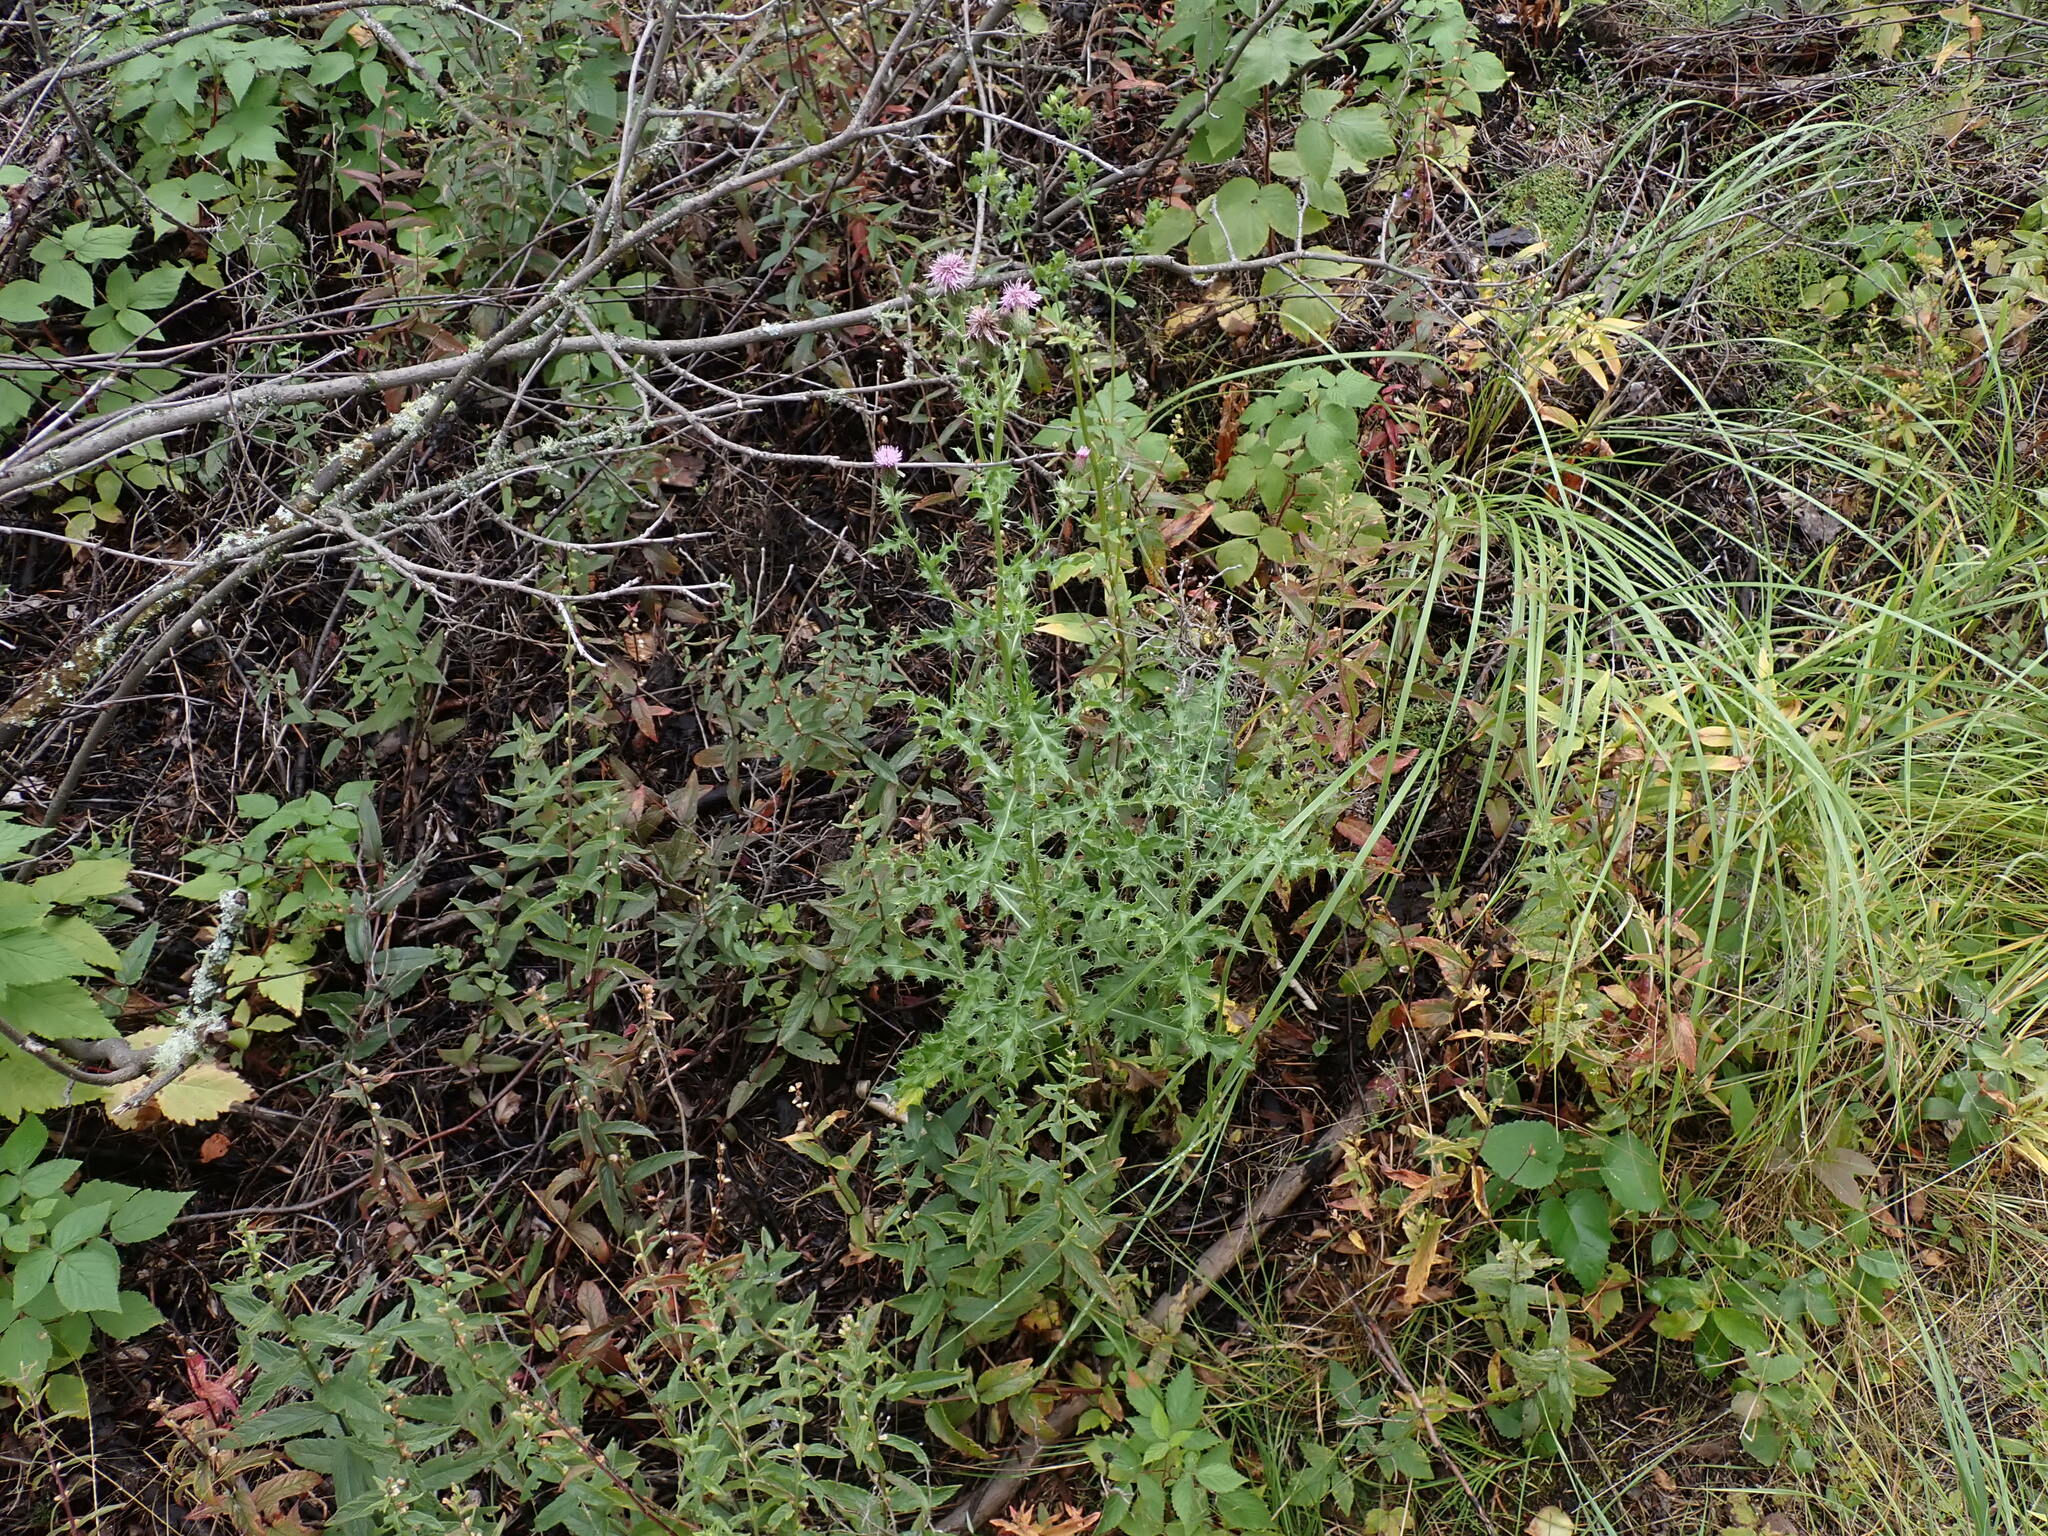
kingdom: Plantae
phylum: Tracheophyta
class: Magnoliopsida
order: Asterales
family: Asteraceae
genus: Cirsium
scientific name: Cirsium arvense
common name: Creeping thistle
